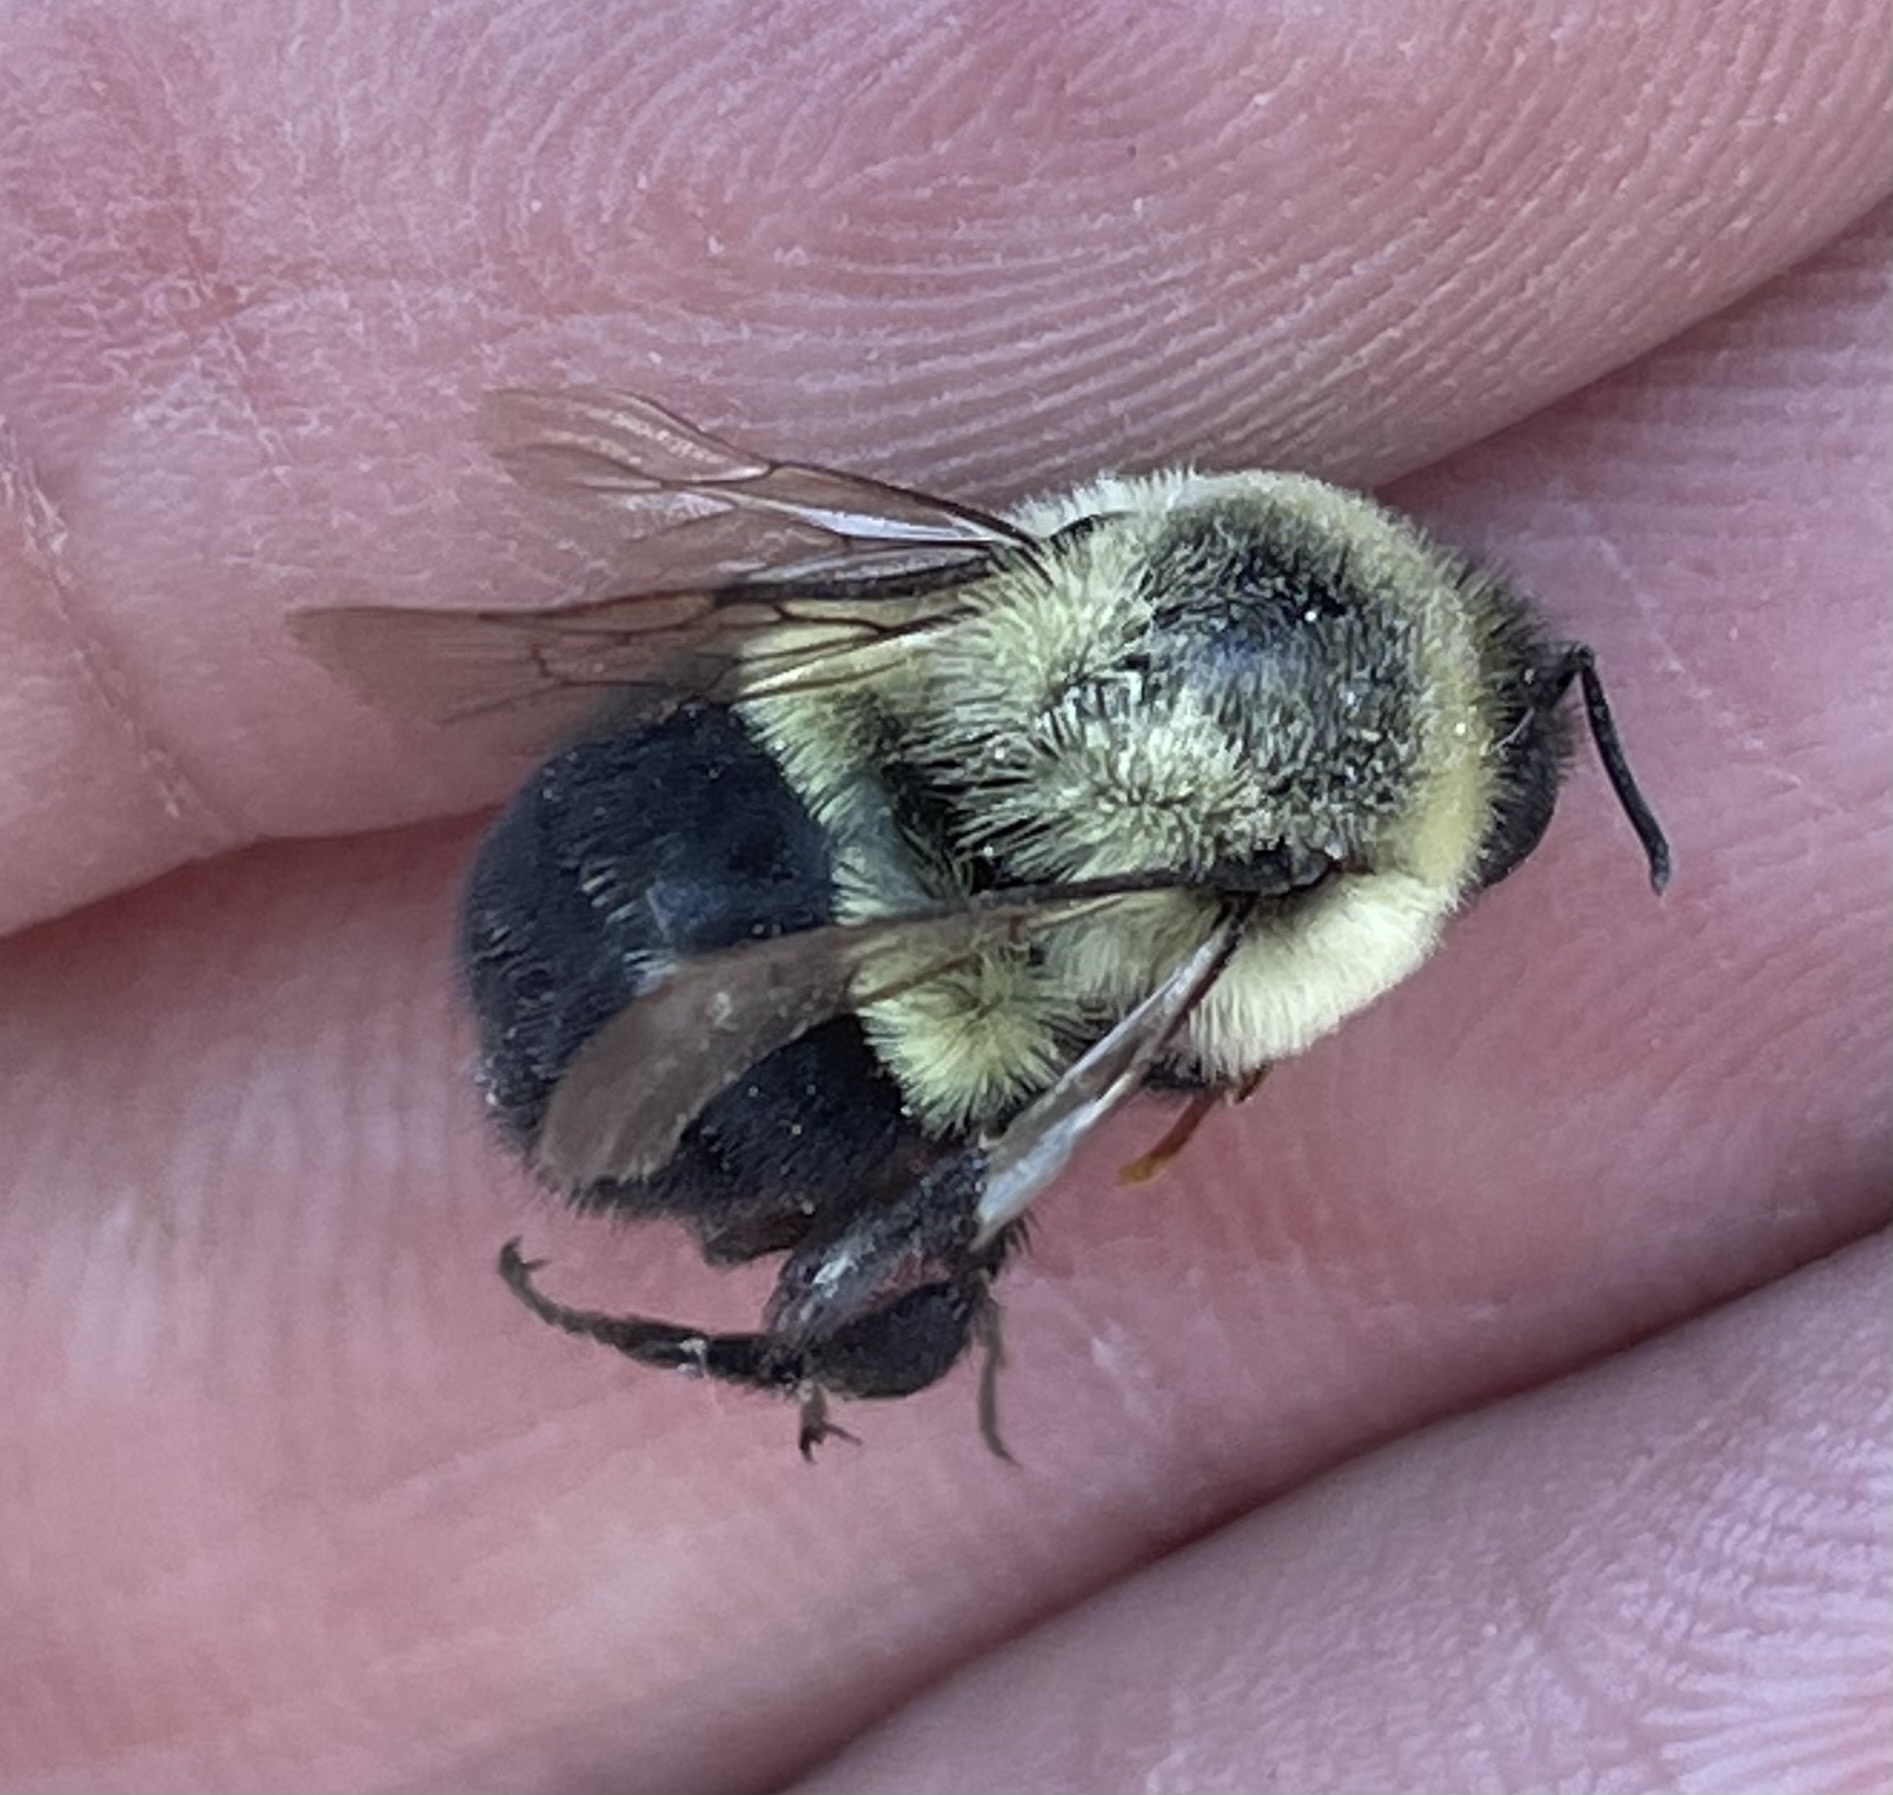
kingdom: Animalia
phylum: Arthropoda
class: Insecta
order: Hymenoptera
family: Apidae
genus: Bombus
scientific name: Bombus impatiens
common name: Common eastern bumble bee
